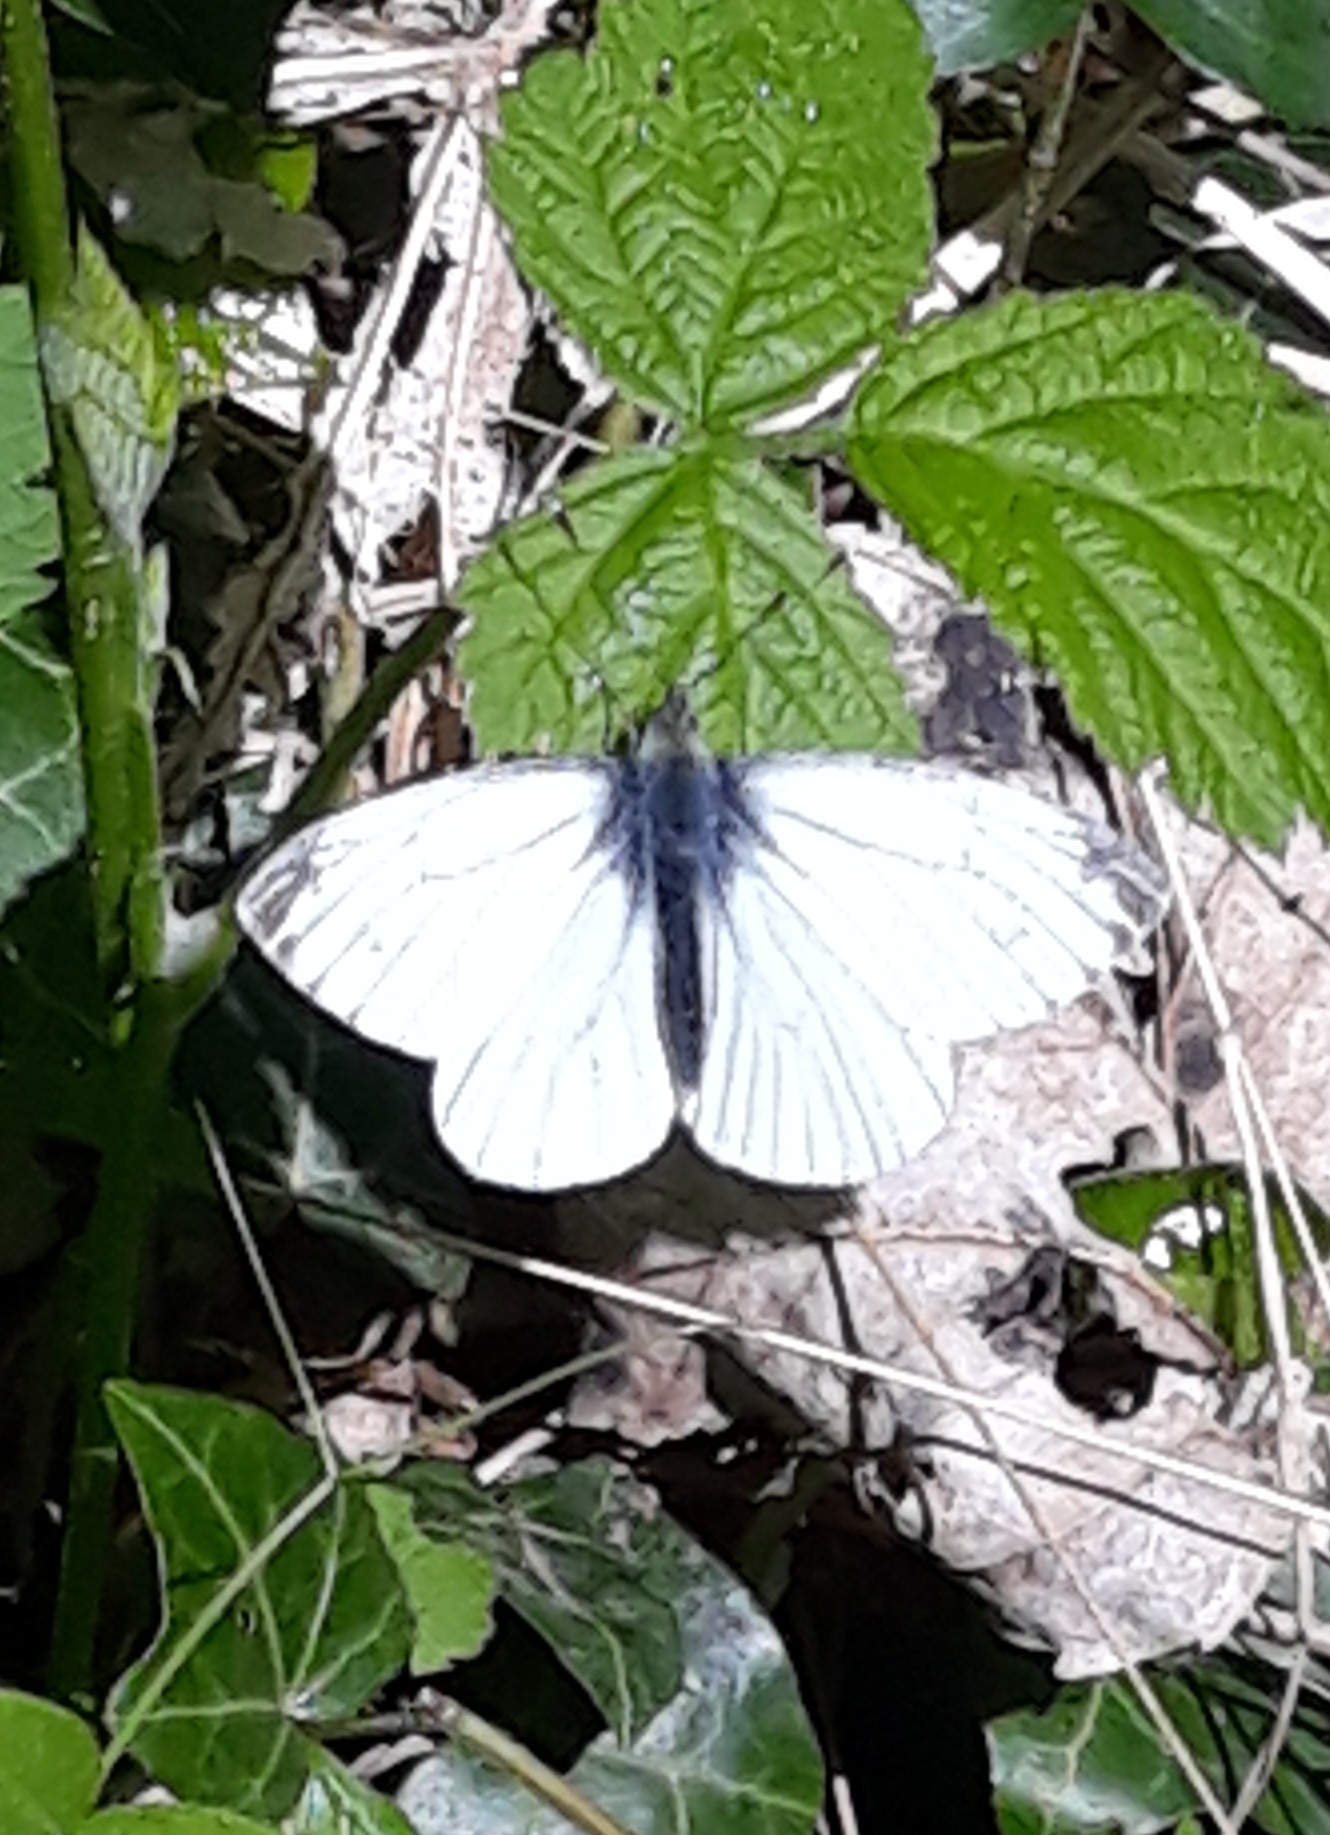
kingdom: Animalia
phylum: Arthropoda
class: Insecta
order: Lepidoptera
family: Pieridae
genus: Pieris
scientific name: Pieris napi
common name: Green-veined white
